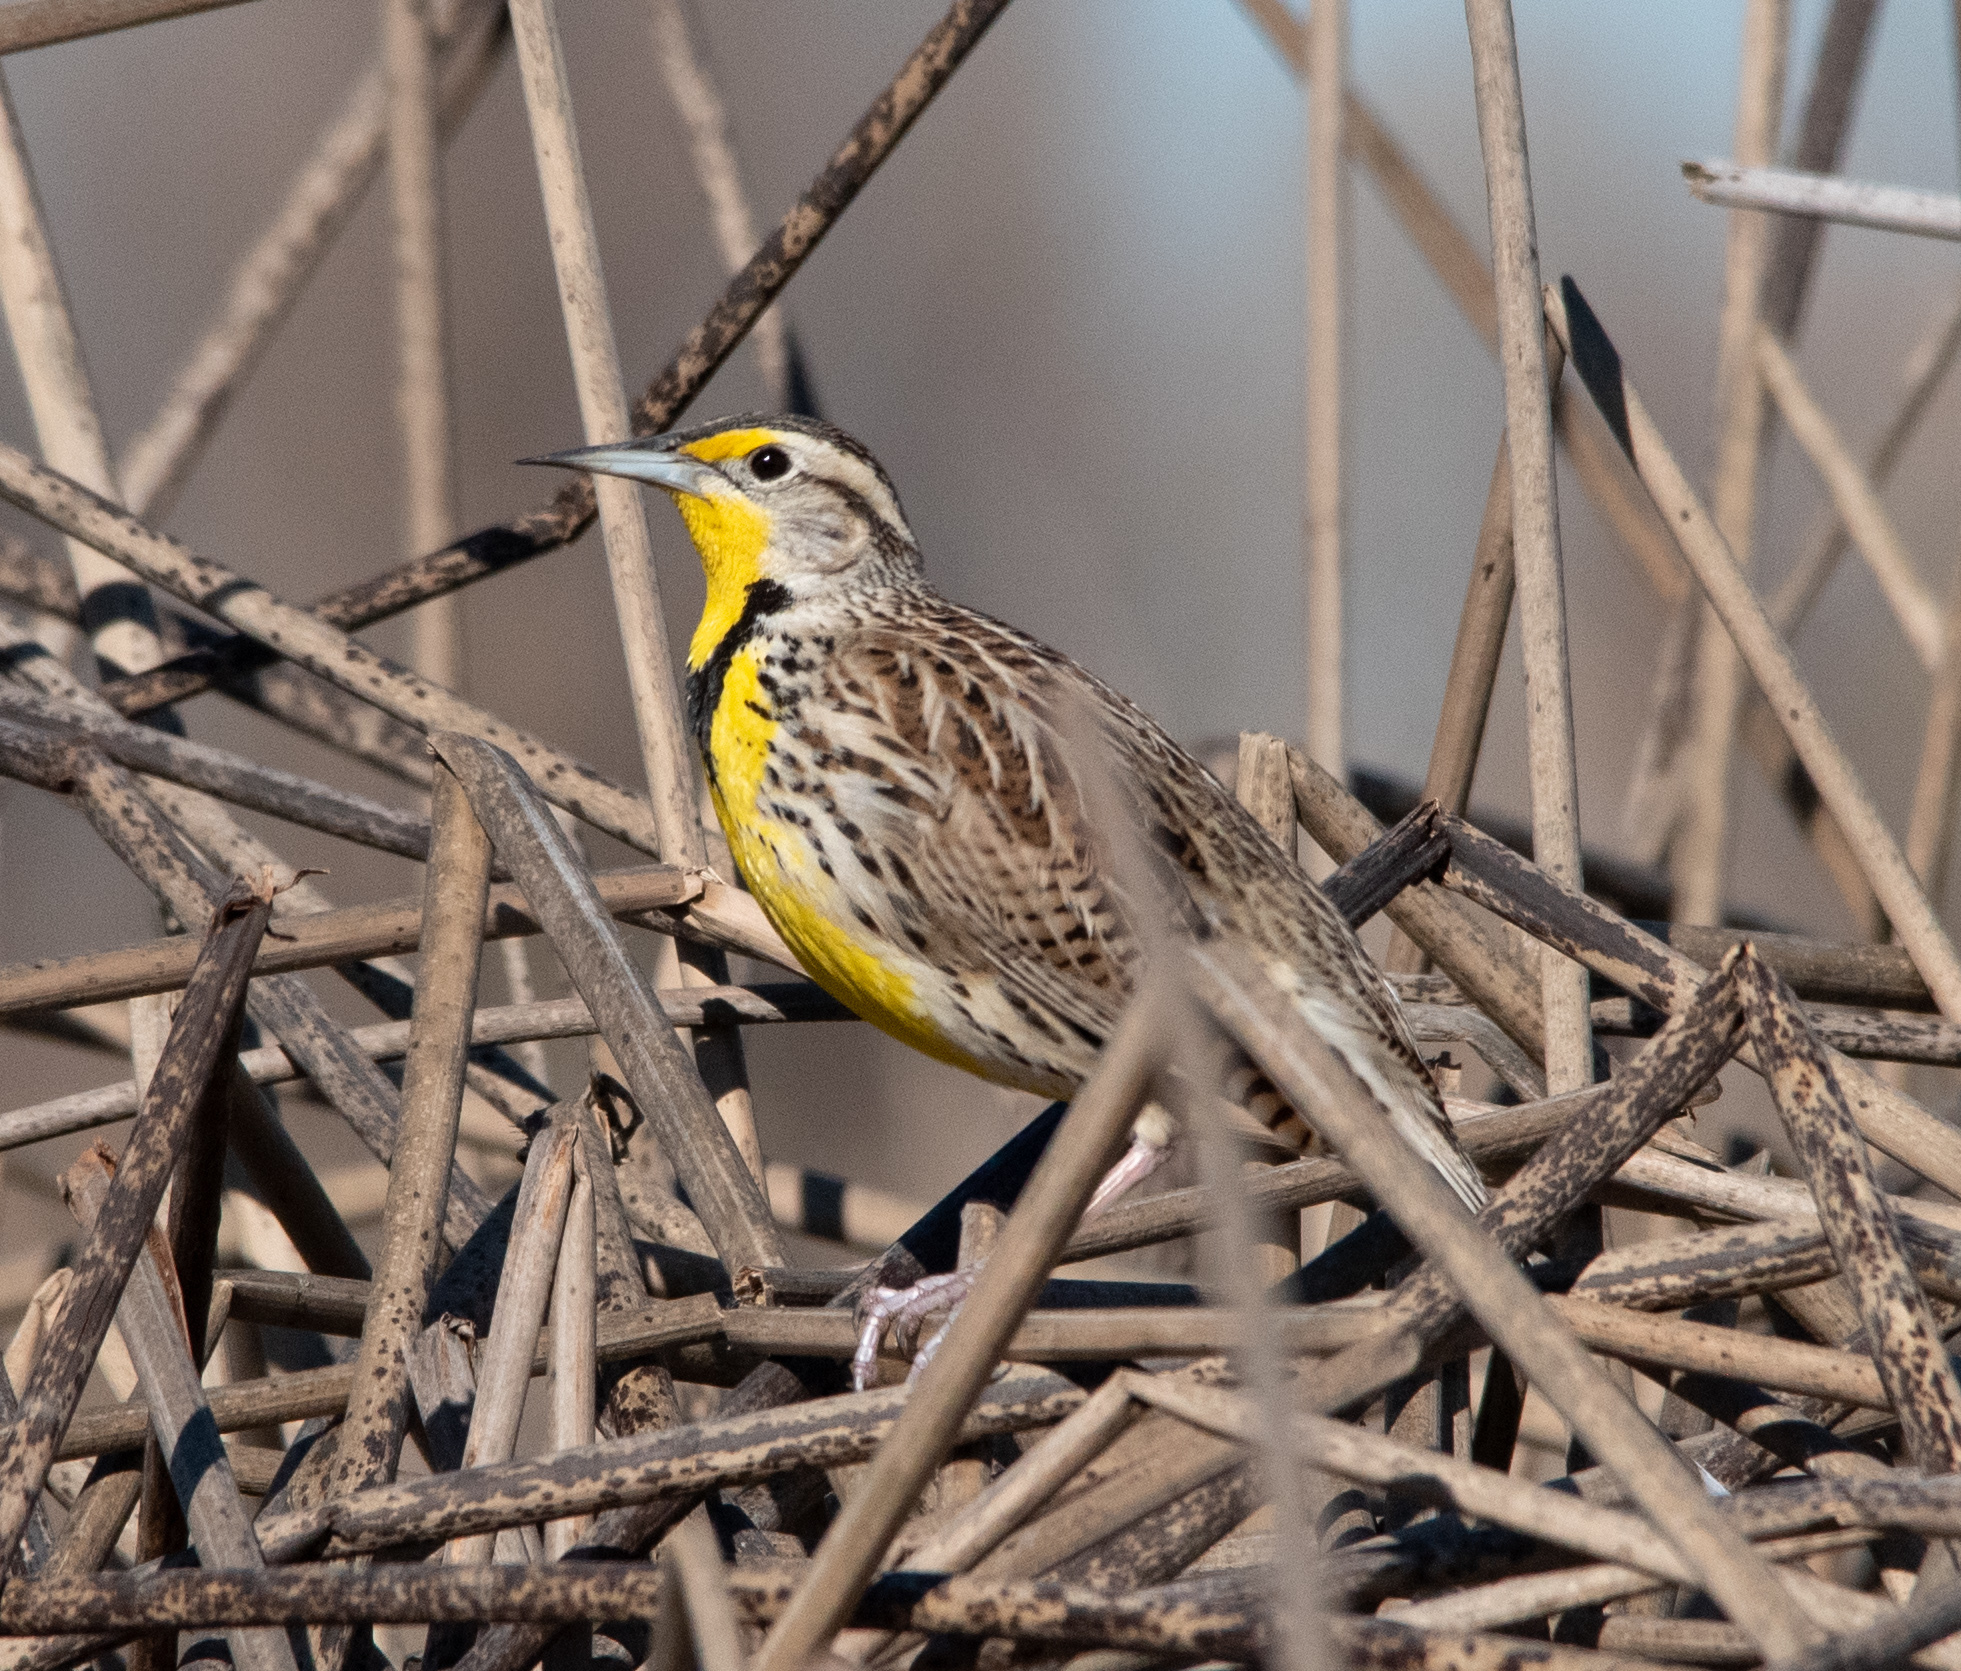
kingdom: Animalia
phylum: Chordata
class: Aves
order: Passeriformes
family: Icteridae
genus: Sturnella
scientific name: Sturnella neglecta
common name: Western meadowlark
